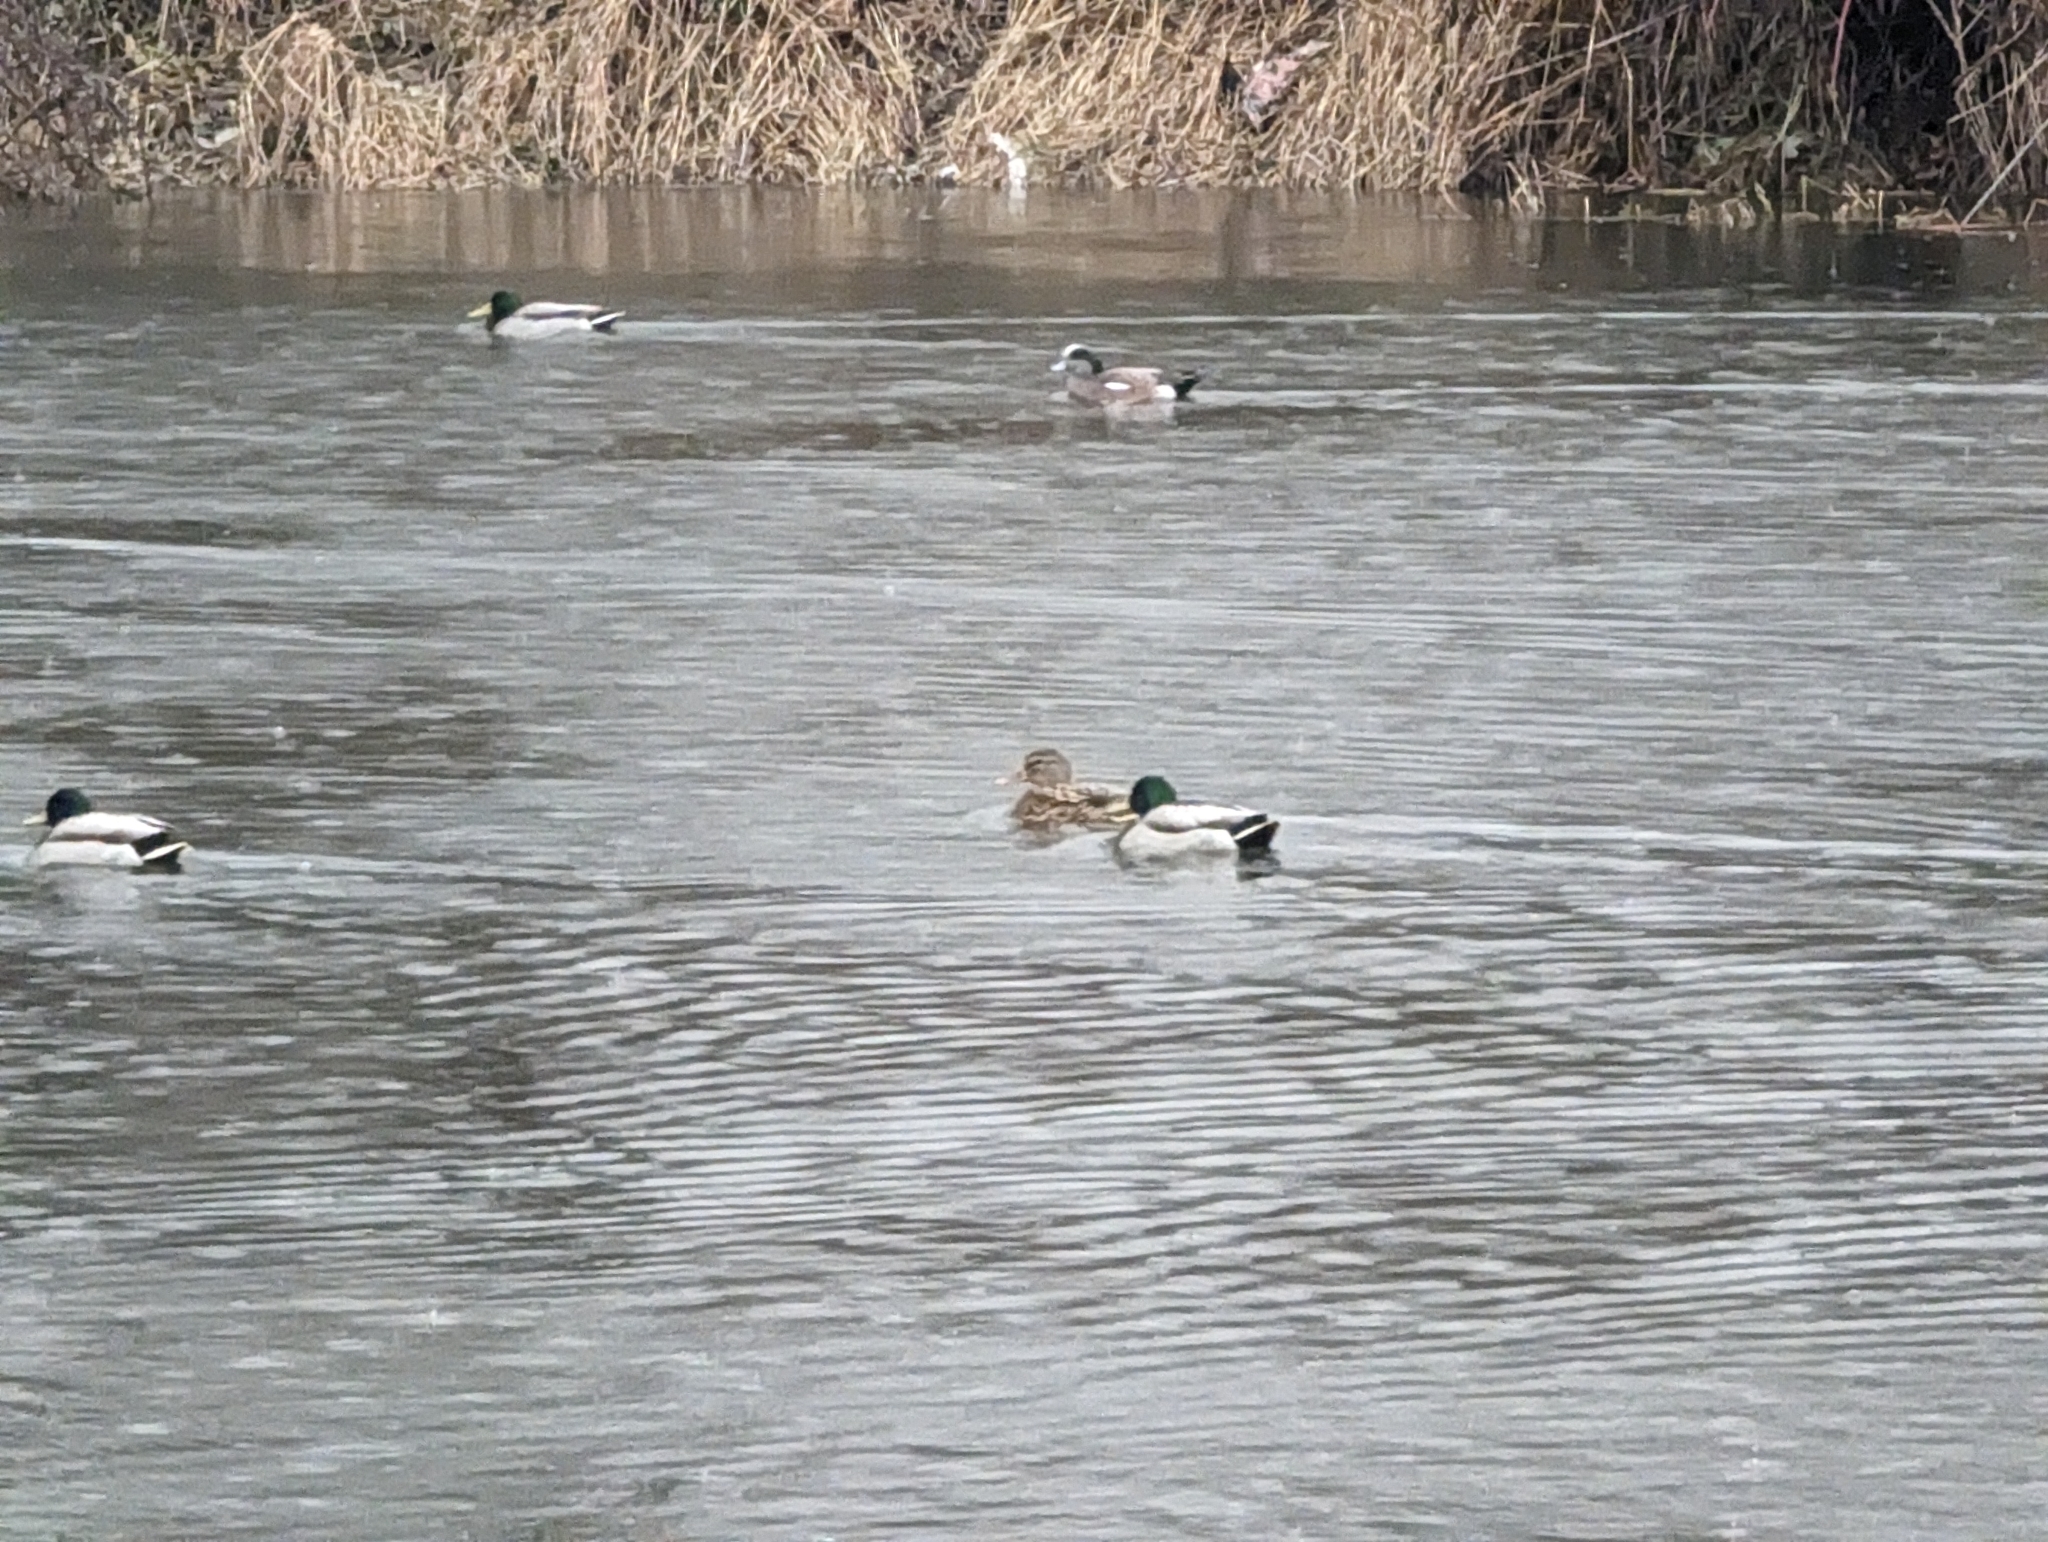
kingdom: Animalia
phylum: Chordata
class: Aves
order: Anseriformes
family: Anatidae
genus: Anas
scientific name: Anas platyrhynchos
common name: Mallard
